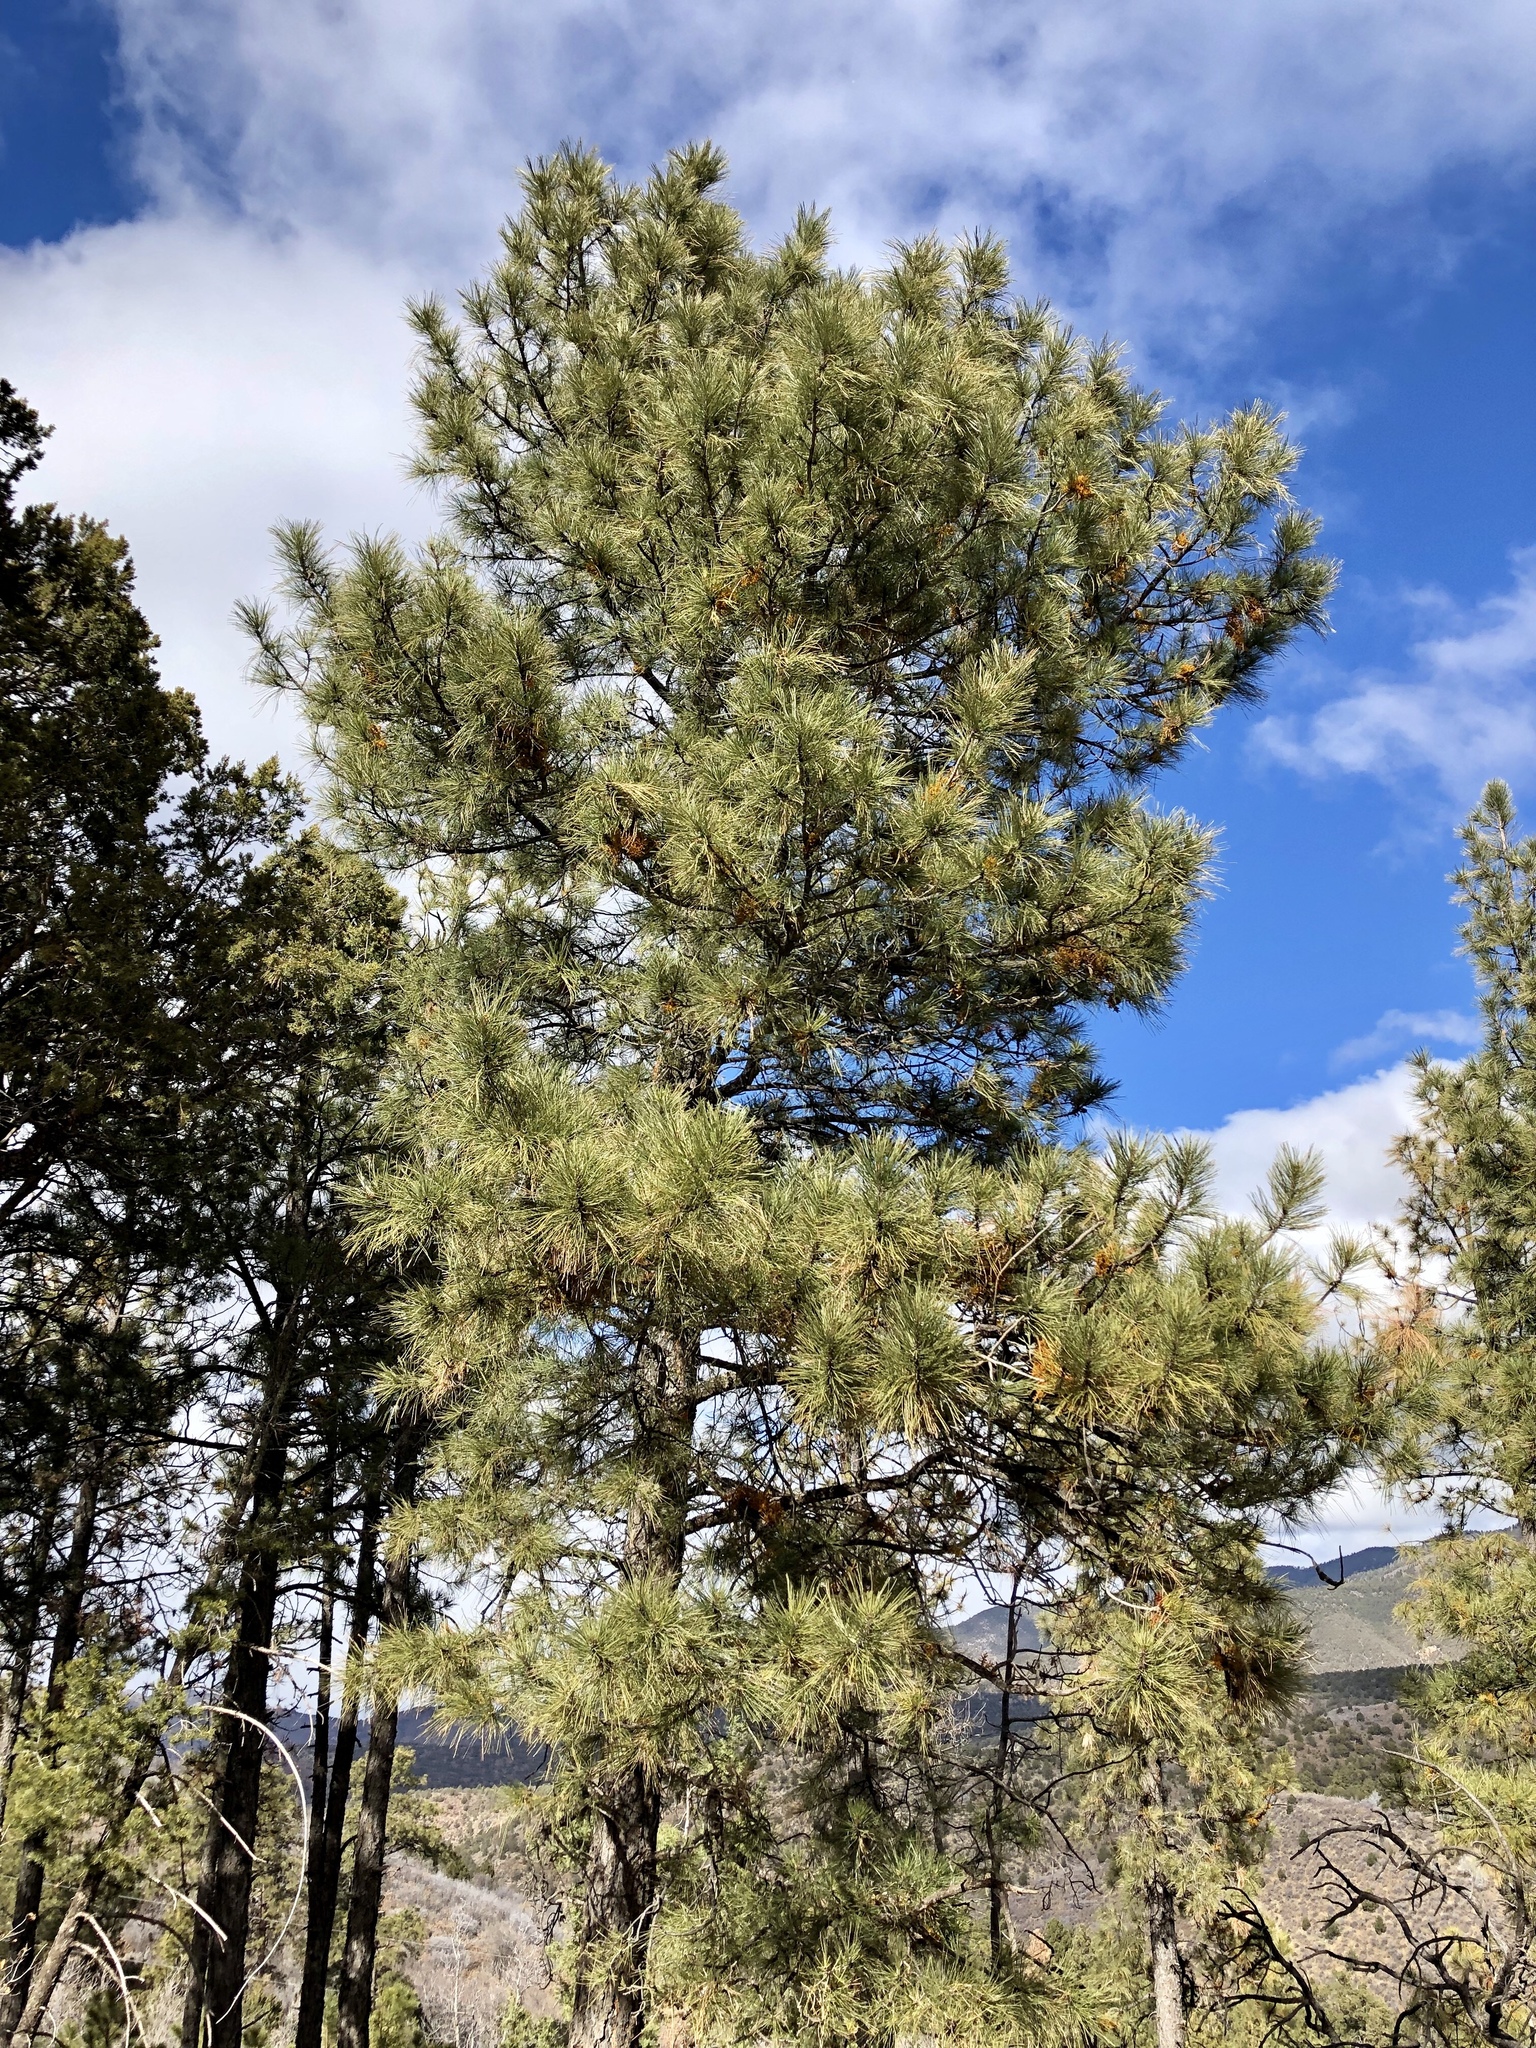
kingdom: Plantae
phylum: Tracheophyta
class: Pinopsida
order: Pinales
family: Pinaceae
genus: Pinus
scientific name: Pinus ponderosa
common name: Western yellow-pine
